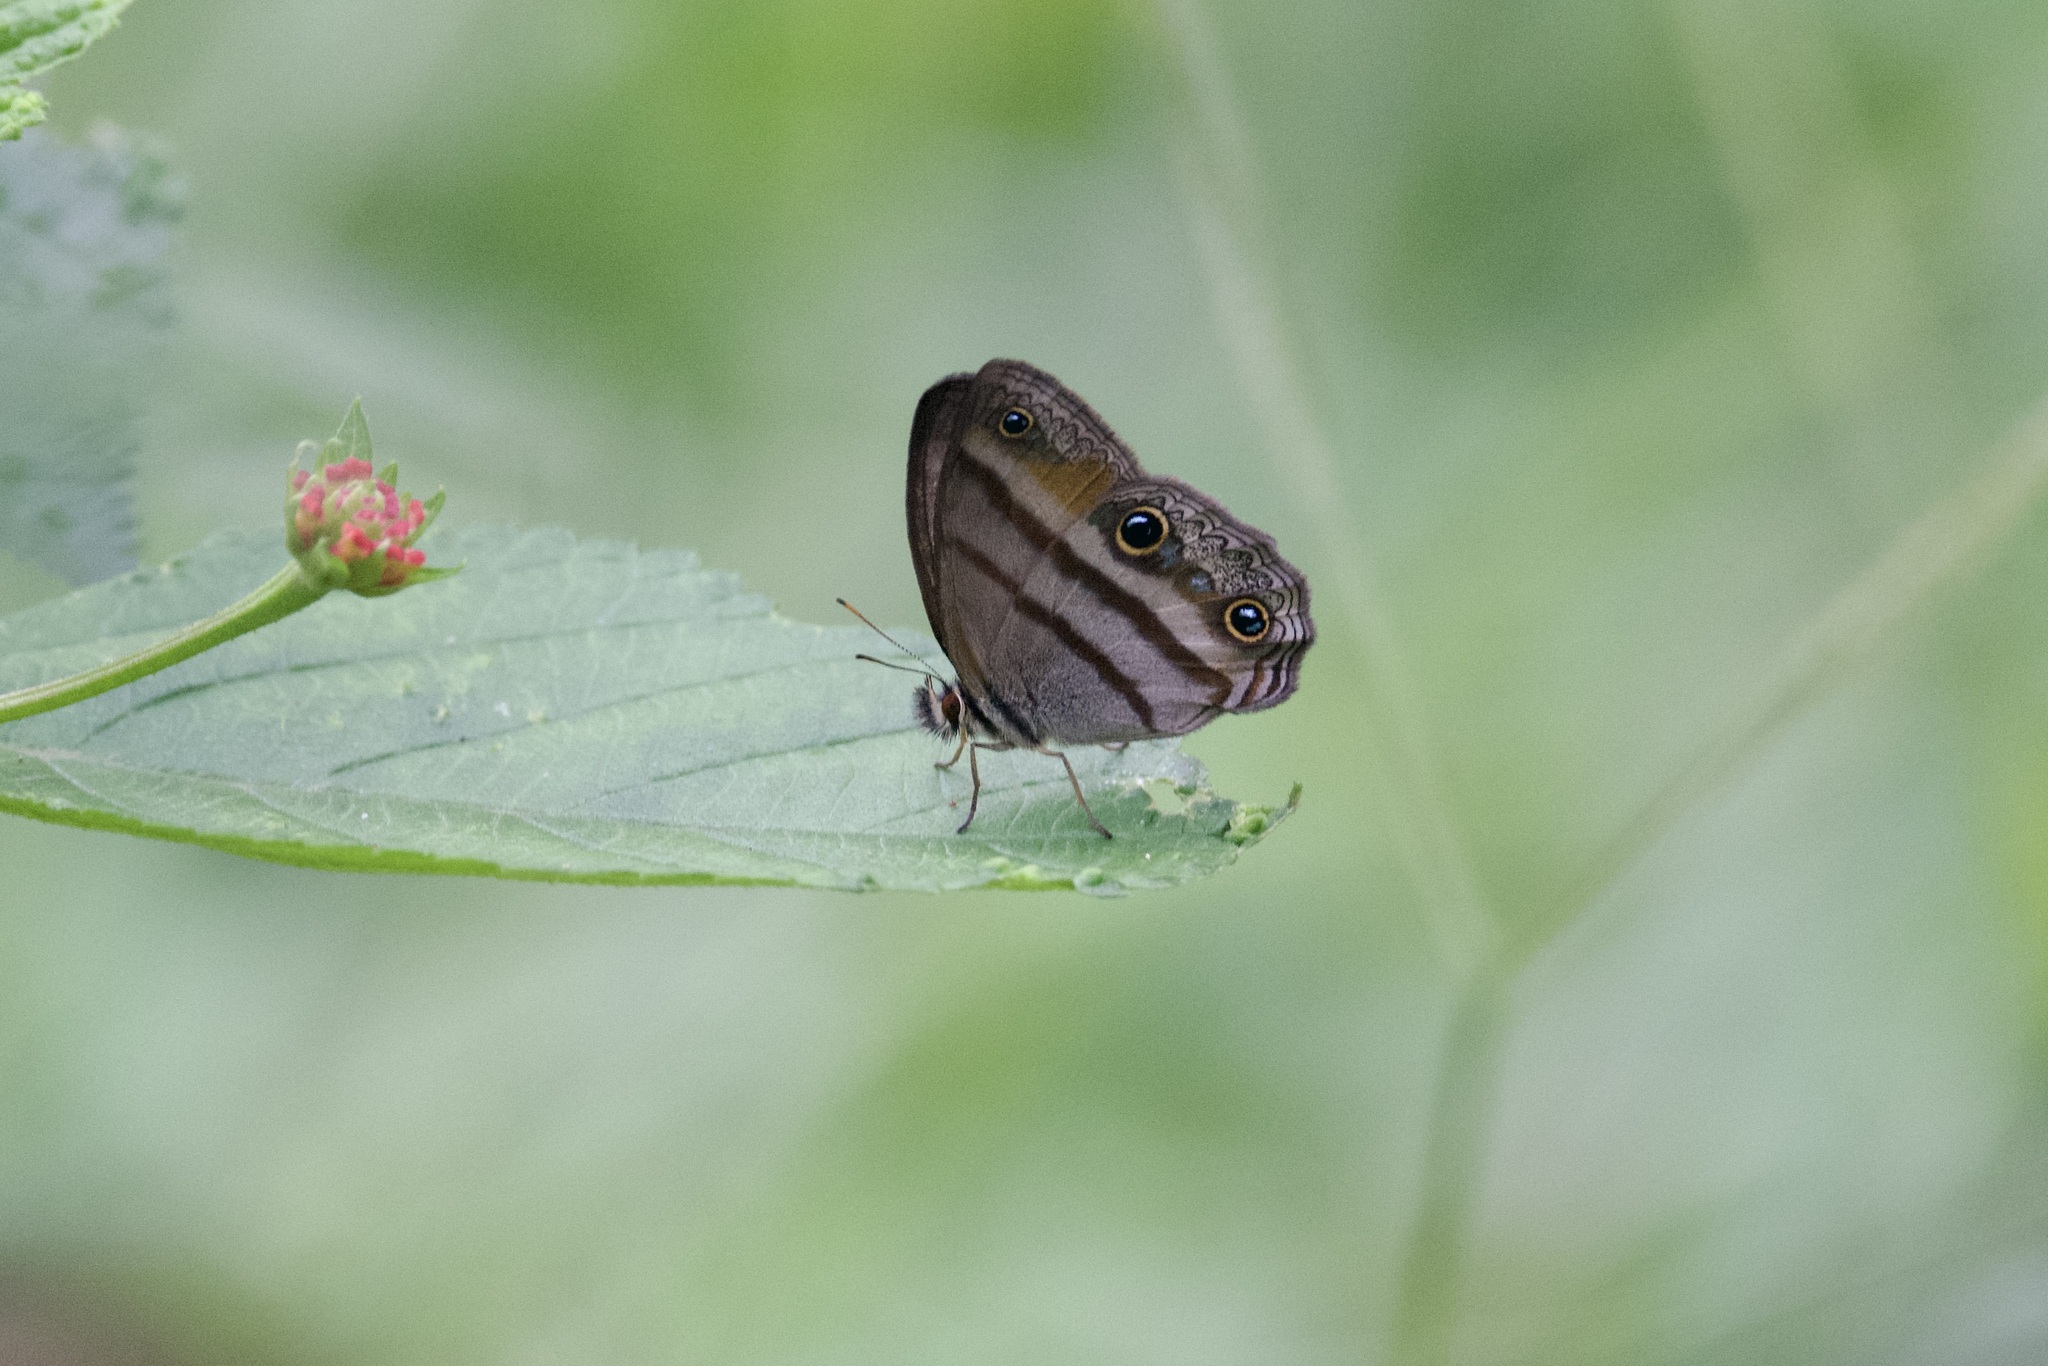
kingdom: Animalia
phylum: Arthropoda
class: Insecta
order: Lepidoptera
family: Nymphalidae
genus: Argyreuptychia
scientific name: Argyreuptychia penelope
